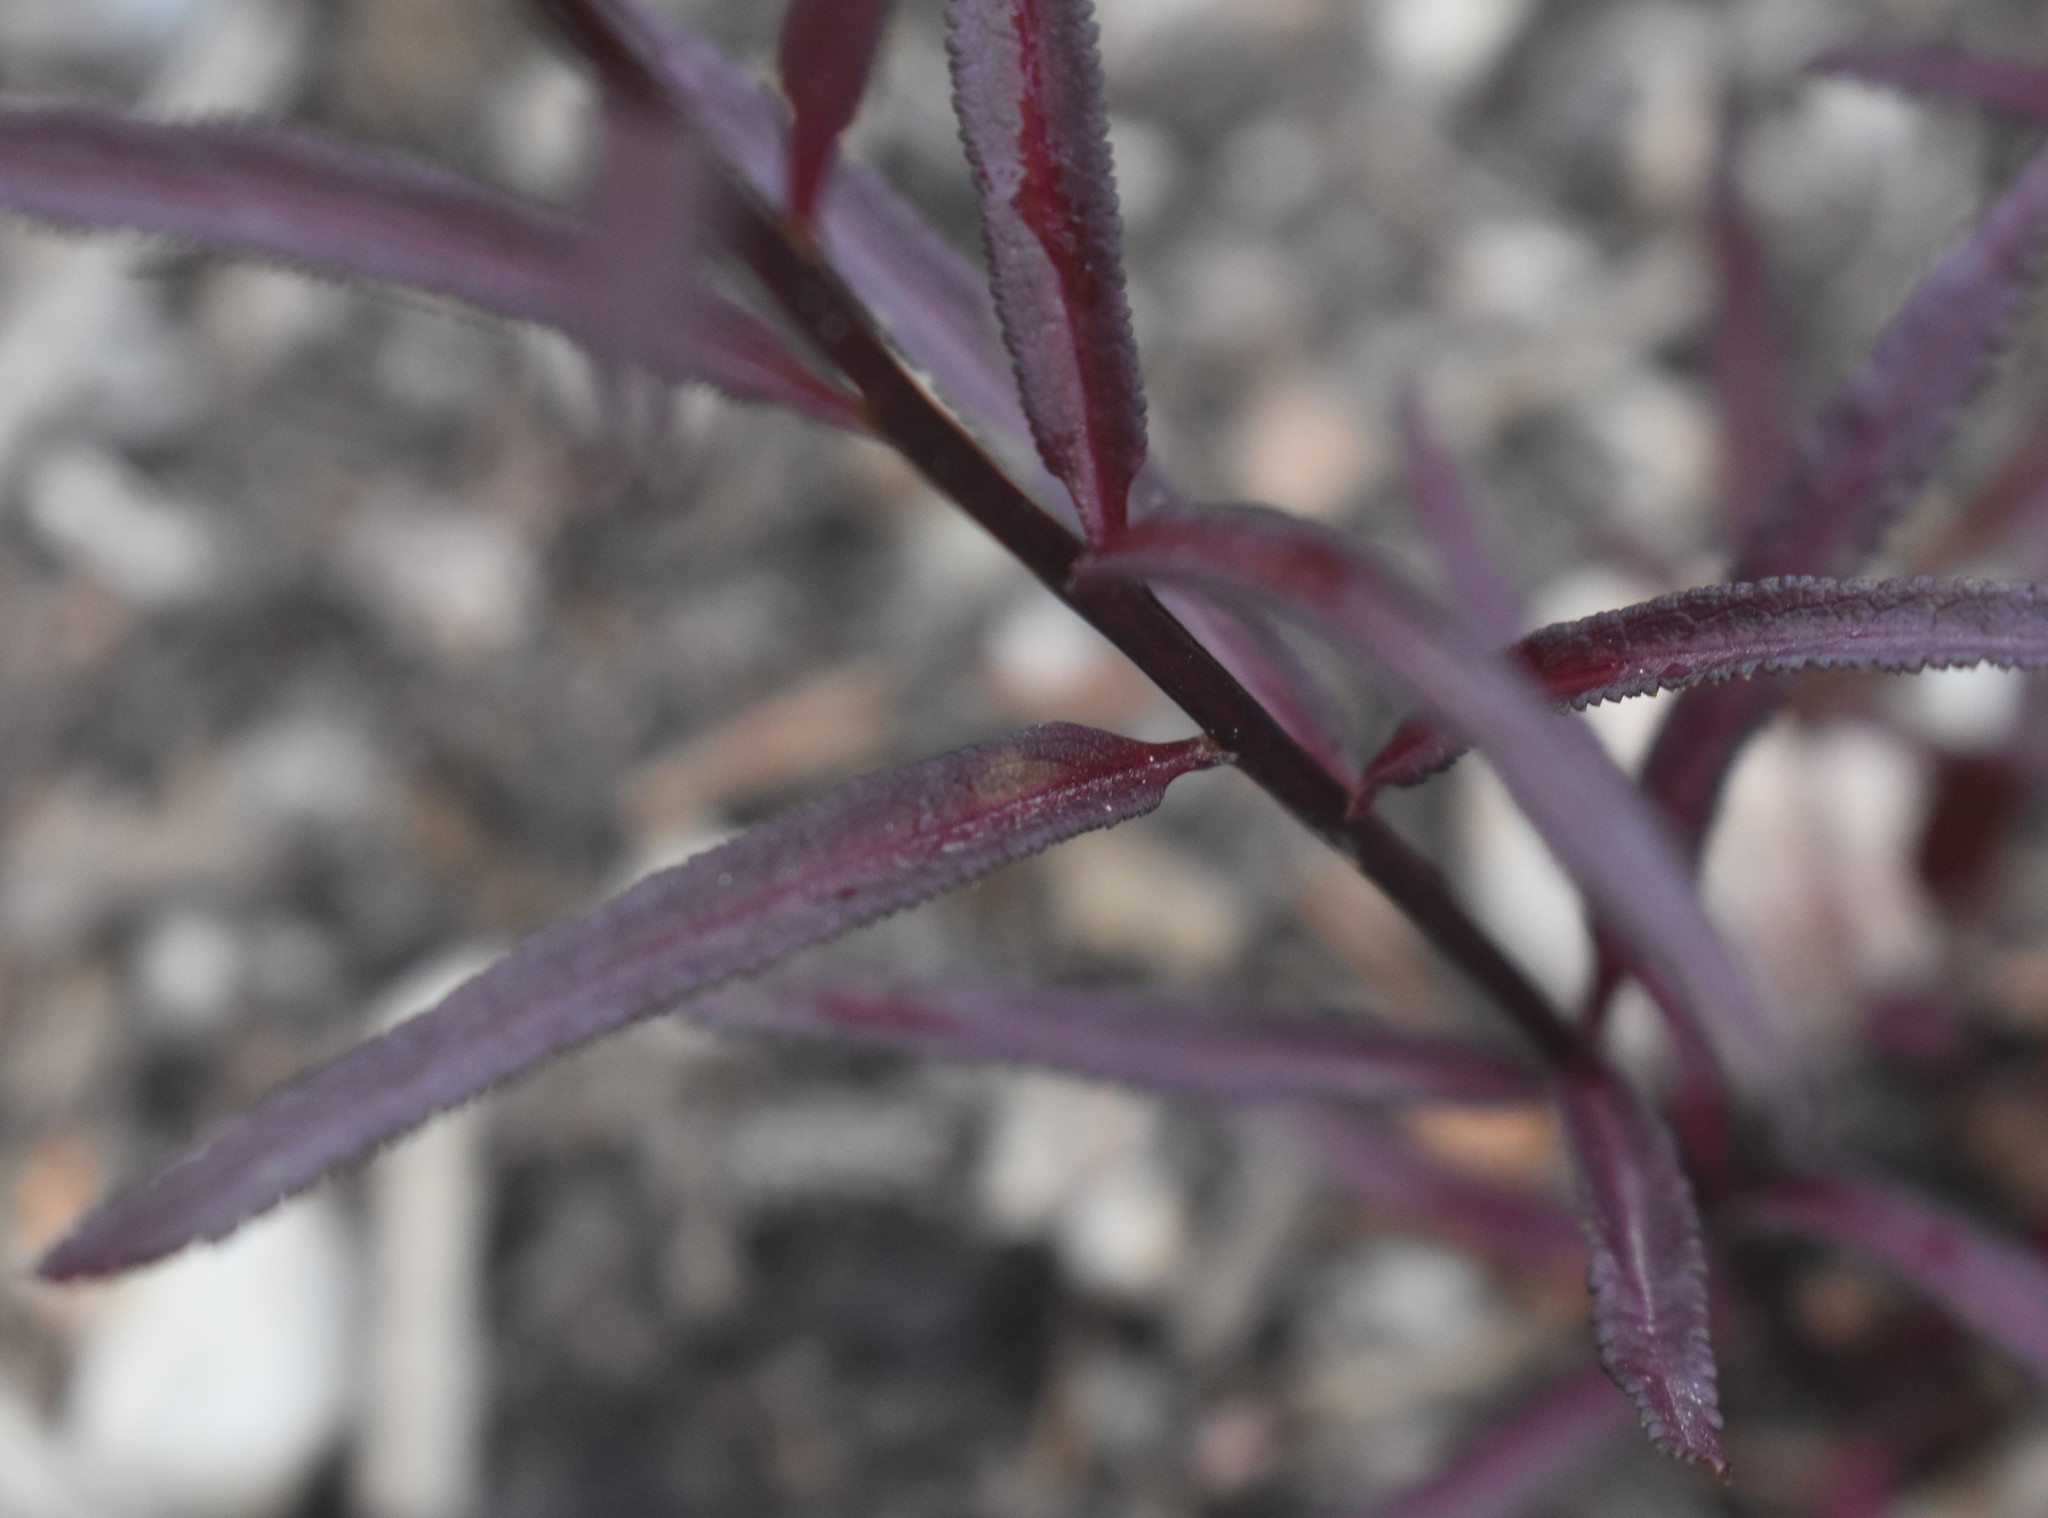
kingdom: Plantae
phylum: Tracheophyta
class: Magnoliopsida
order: Lamiales
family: Orobanchaceae
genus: Pedicularis
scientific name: Pedicularis racemosa
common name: Leafy lousewort
